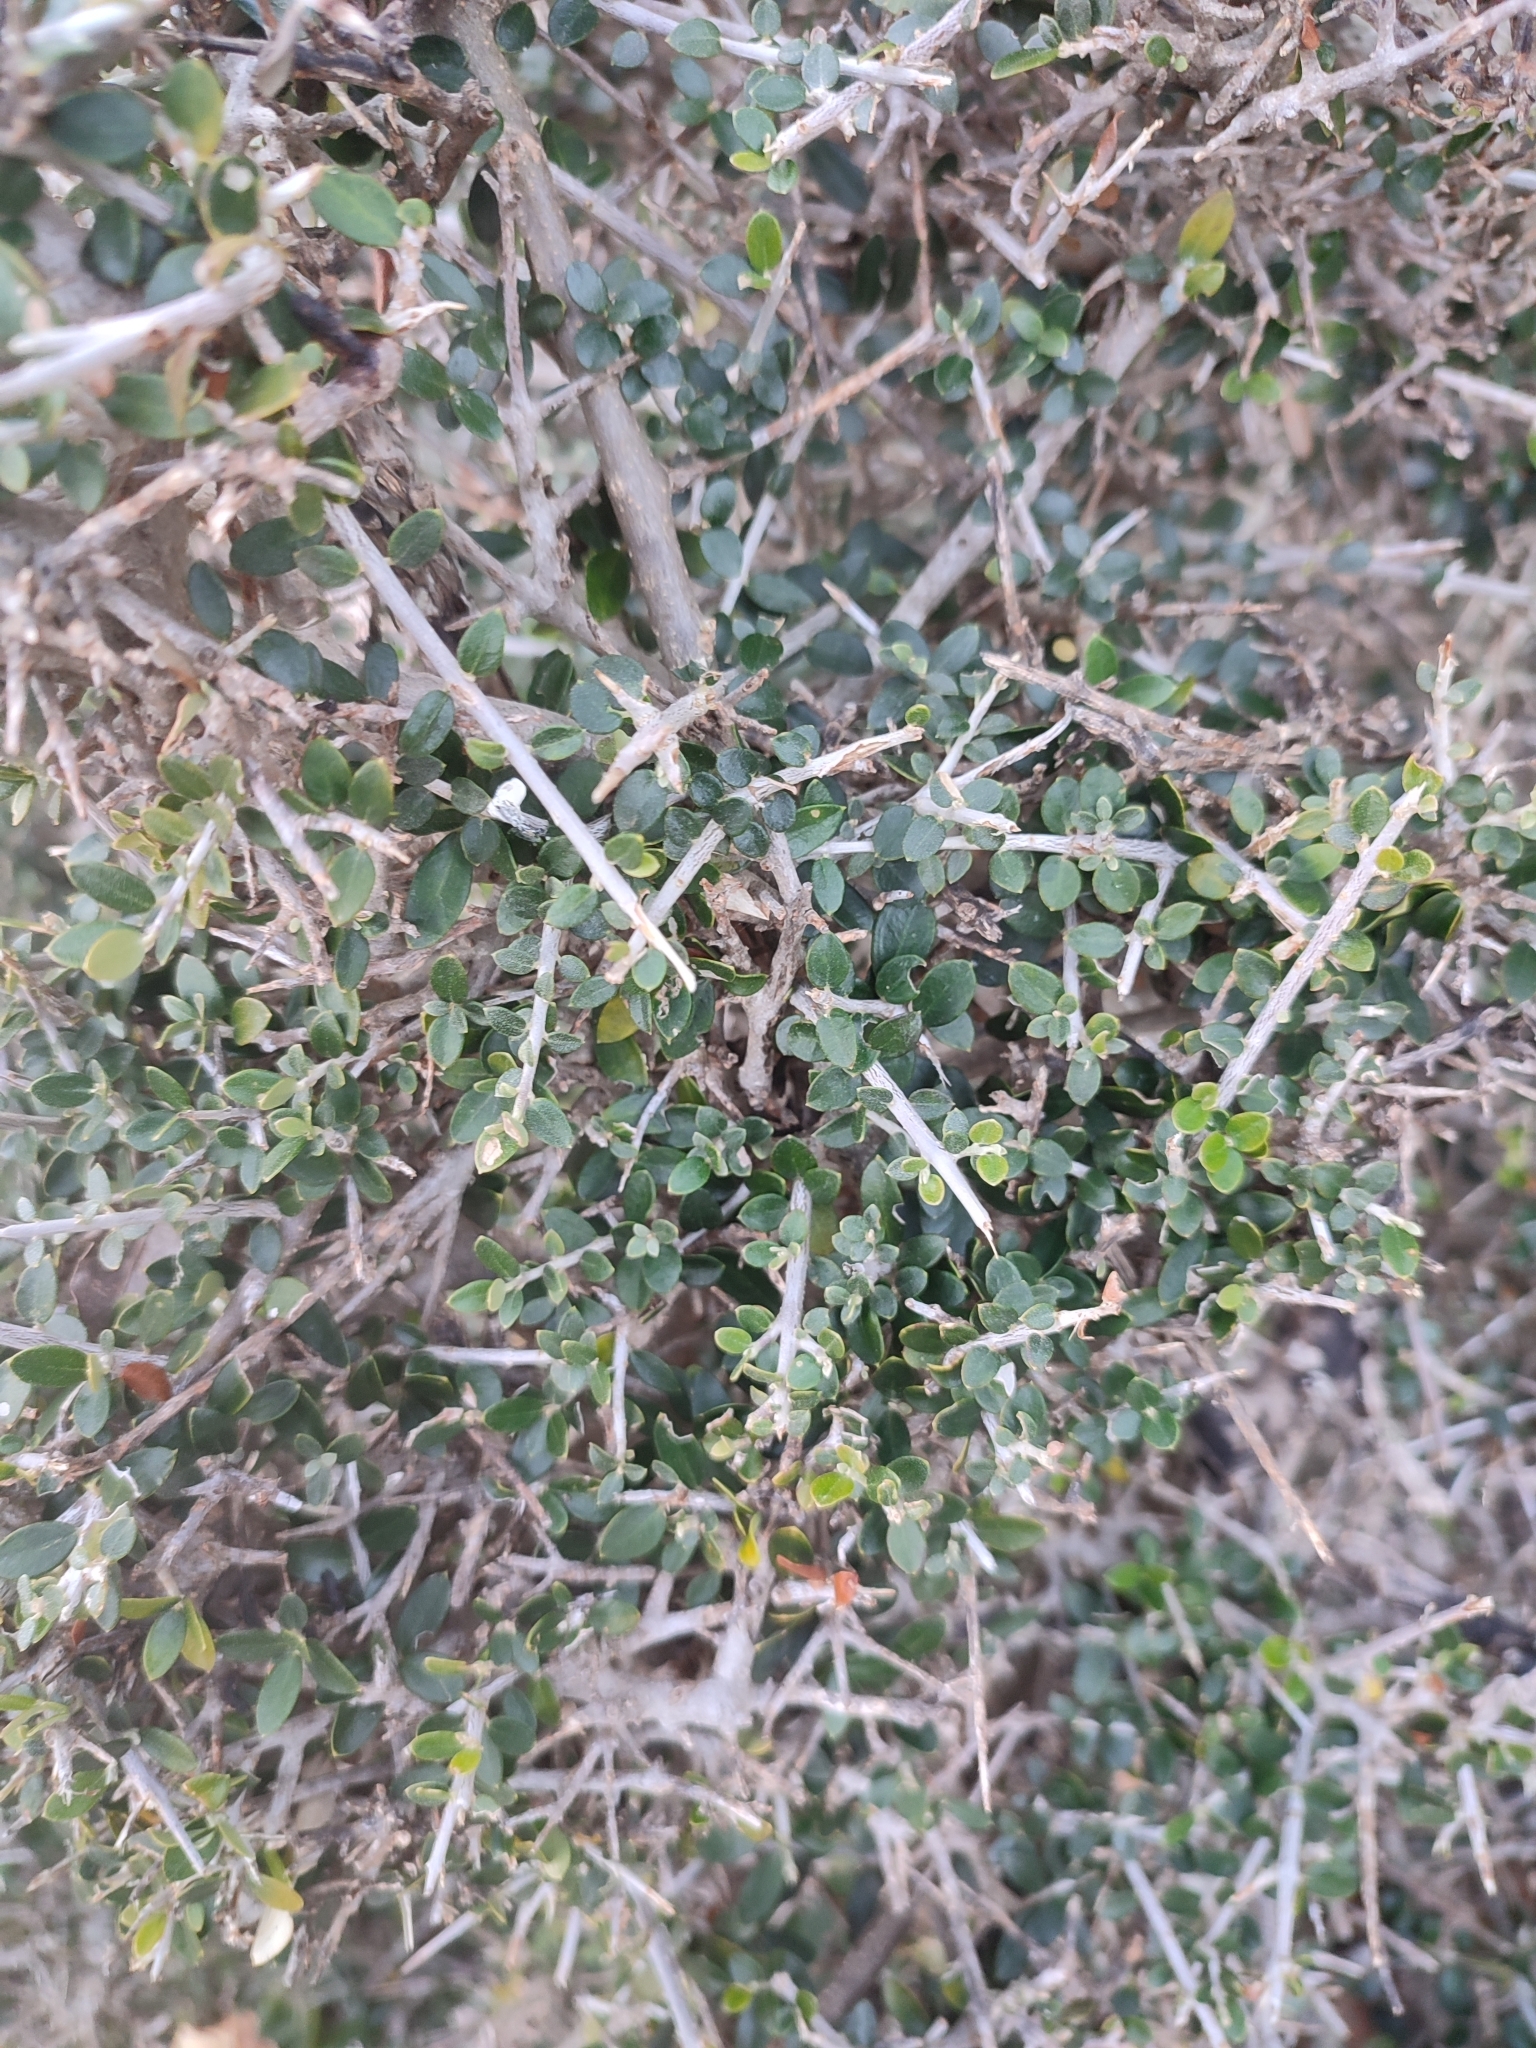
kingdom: Plantae
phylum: Tracheophyta
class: Magnoliopsida
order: Lamiales
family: Oleaceae
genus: Olea
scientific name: Olea europaea
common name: Olive
